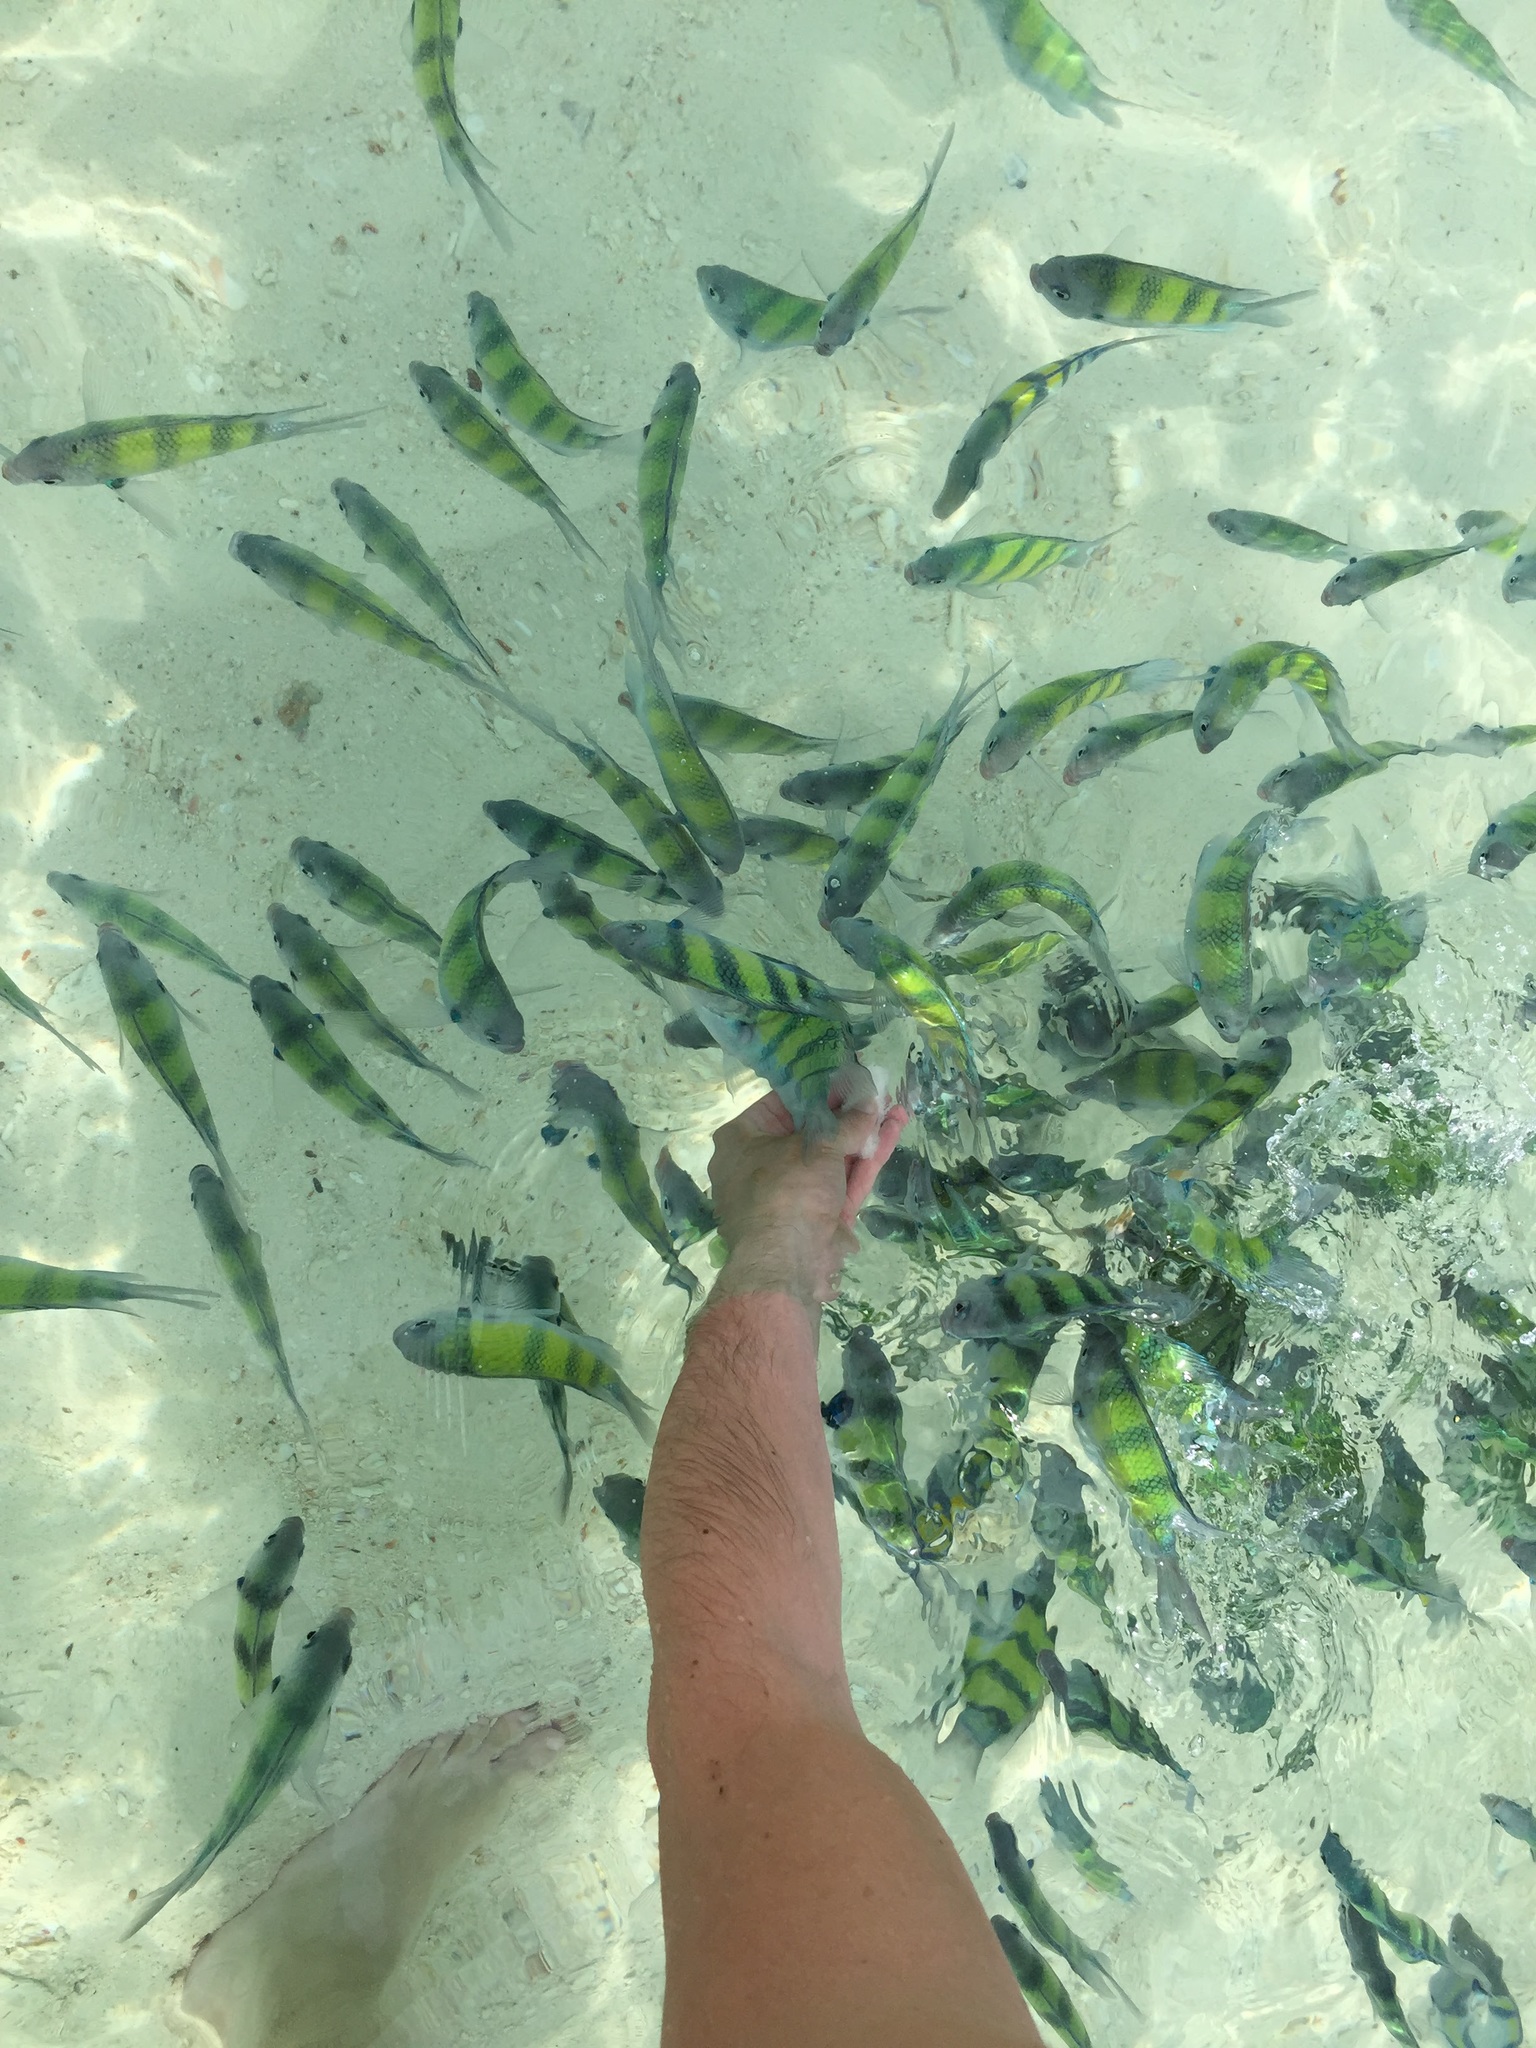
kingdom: Animalia
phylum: Chordata
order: Perciformes
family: Pomacentridae
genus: Abudefduf
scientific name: Abudefduf vaigiensis
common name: Indo-pacific sergeant
